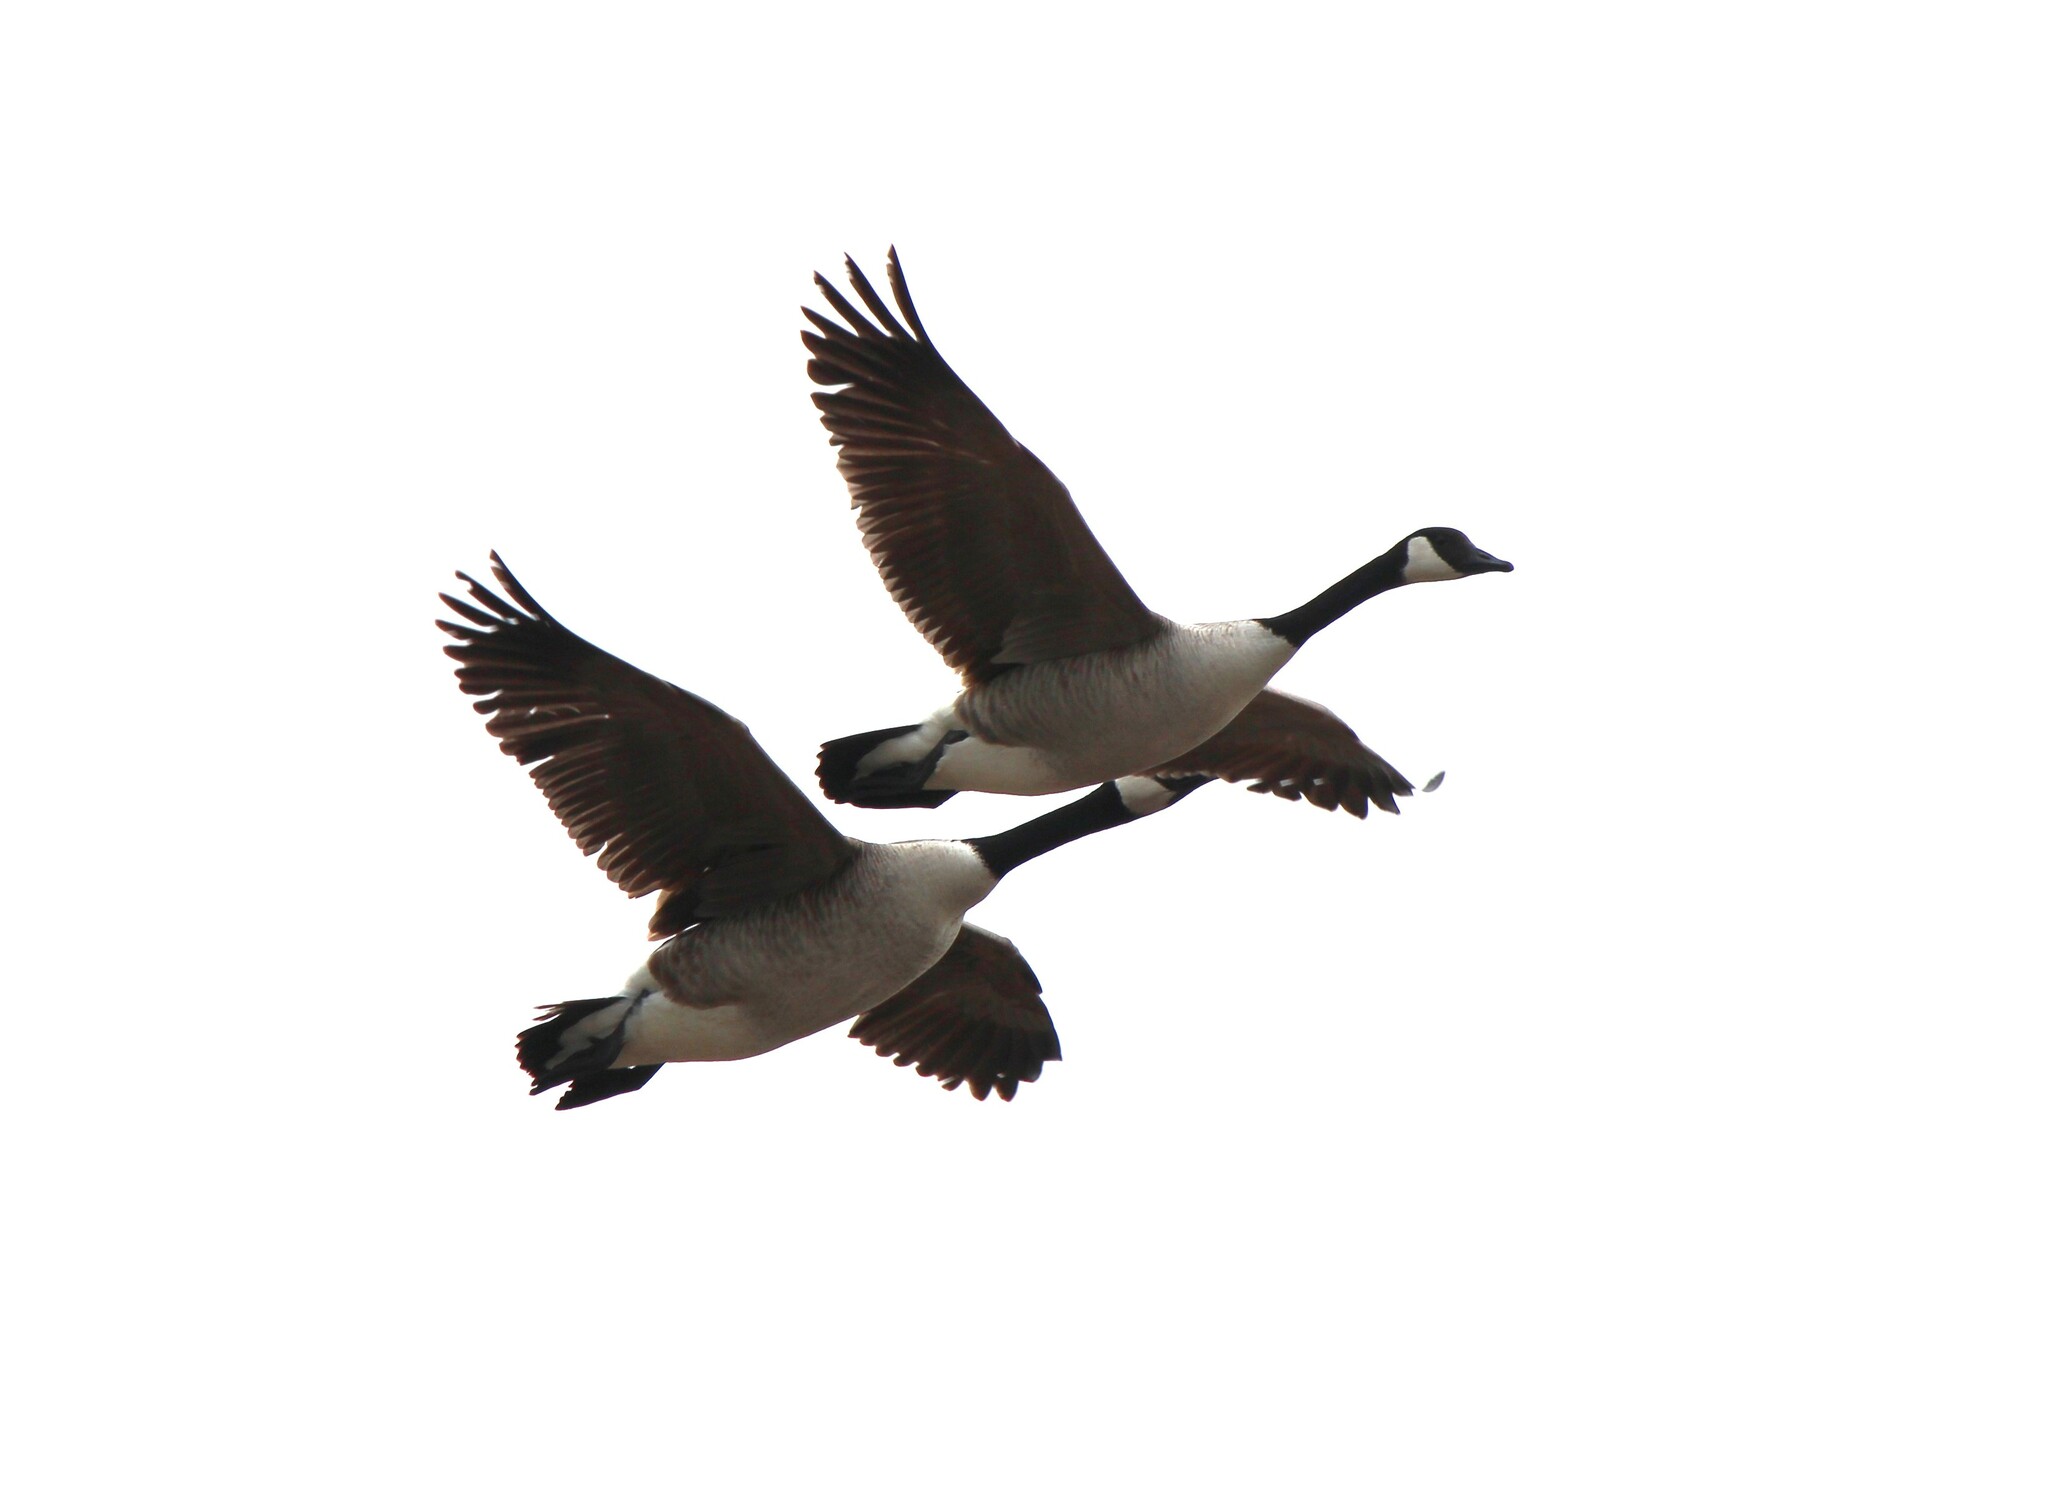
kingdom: Animalia
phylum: Chordata
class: Aves
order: Anseriformes
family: Anatidae
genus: Branta
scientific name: Branta canadensis
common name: Canada goose
